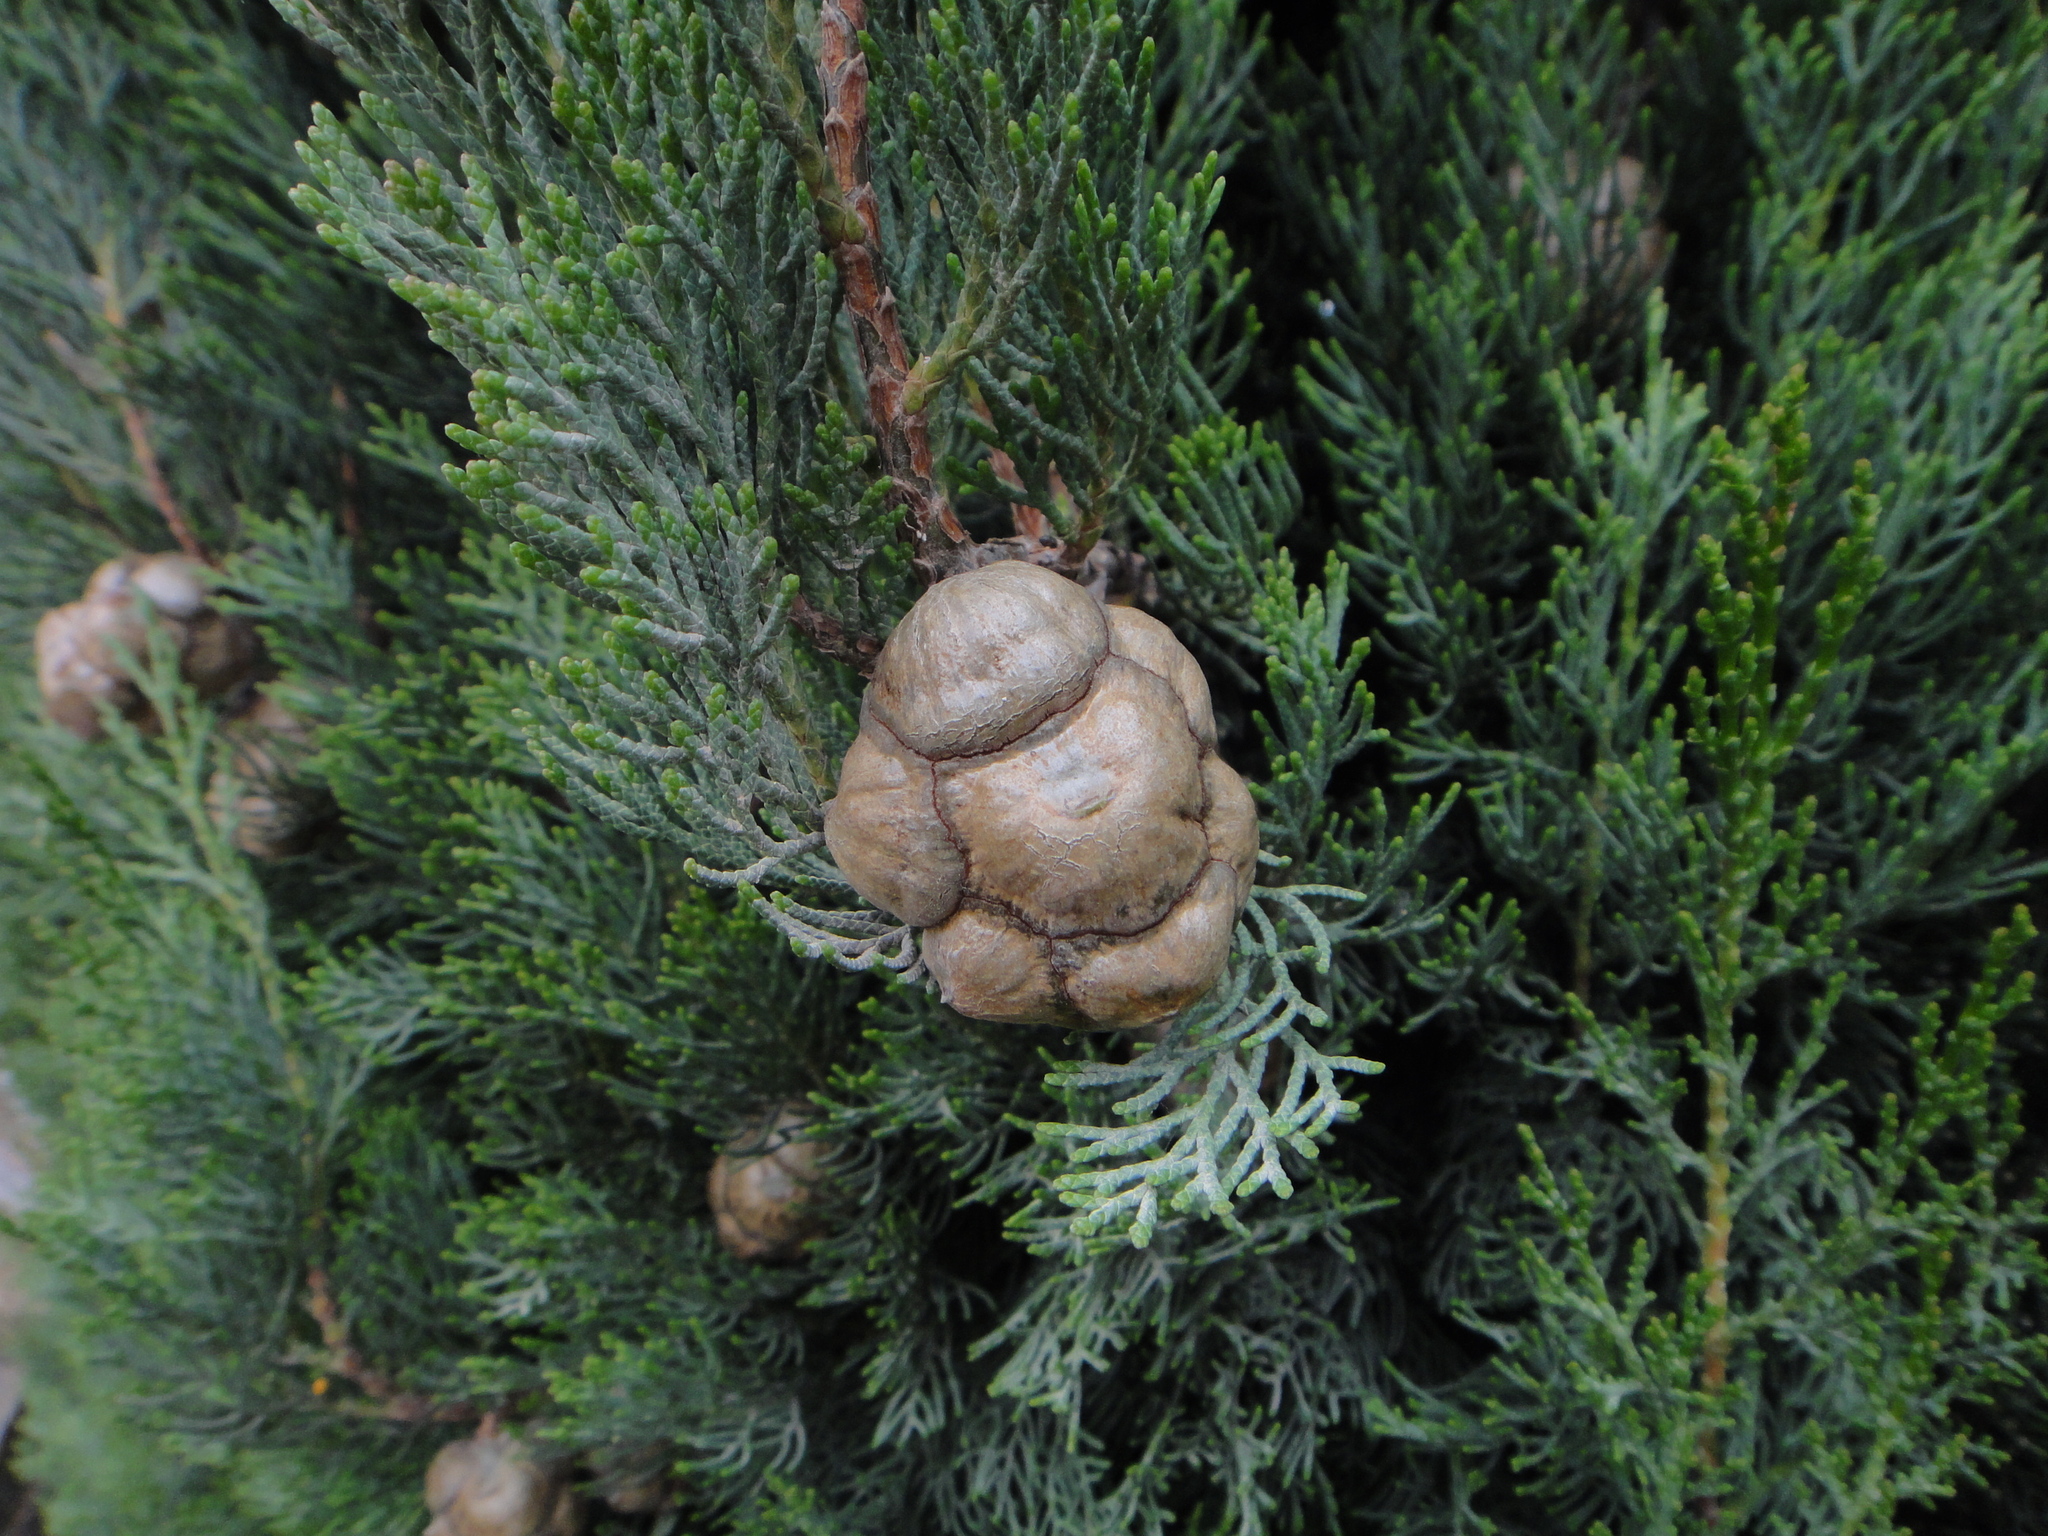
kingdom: Plantae
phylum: Tracheophyta
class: Pinopsida
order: Pinales
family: Cupressaceae
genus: Cupressus
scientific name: Cupressus sempervirens
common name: Italian cypress
